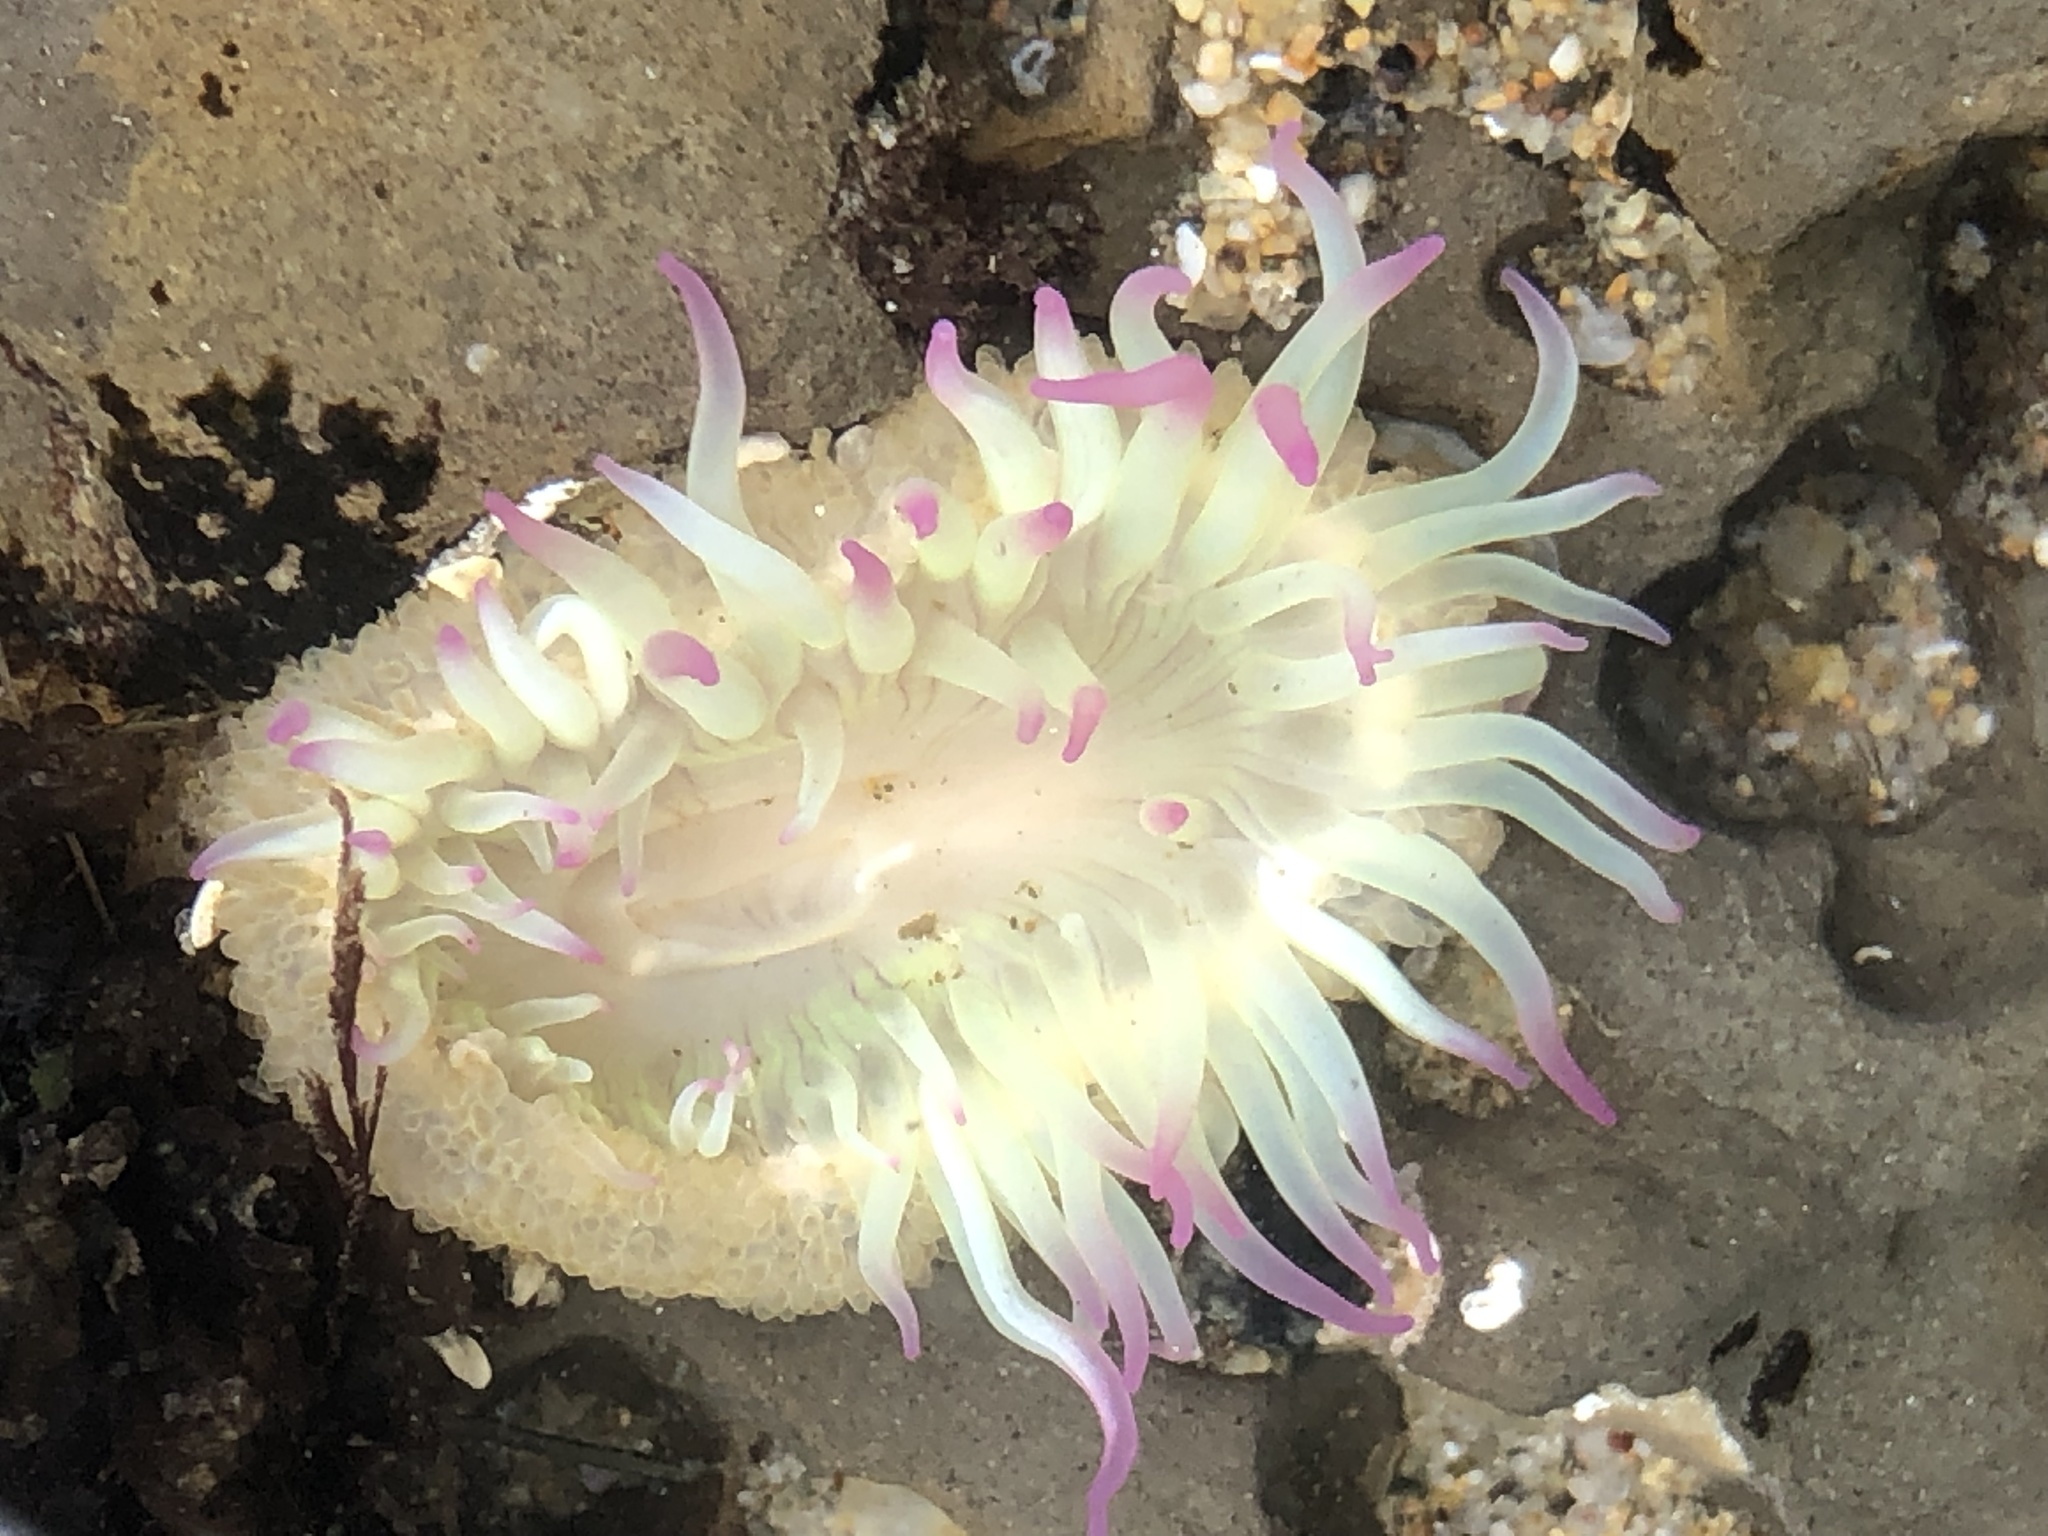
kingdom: Animalia
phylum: Cnidaria
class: Anthozoa
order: Actiniaria
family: Actiniidae
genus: Anthopleura
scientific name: Anthopleura elegantissima
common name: Clonal anemone
